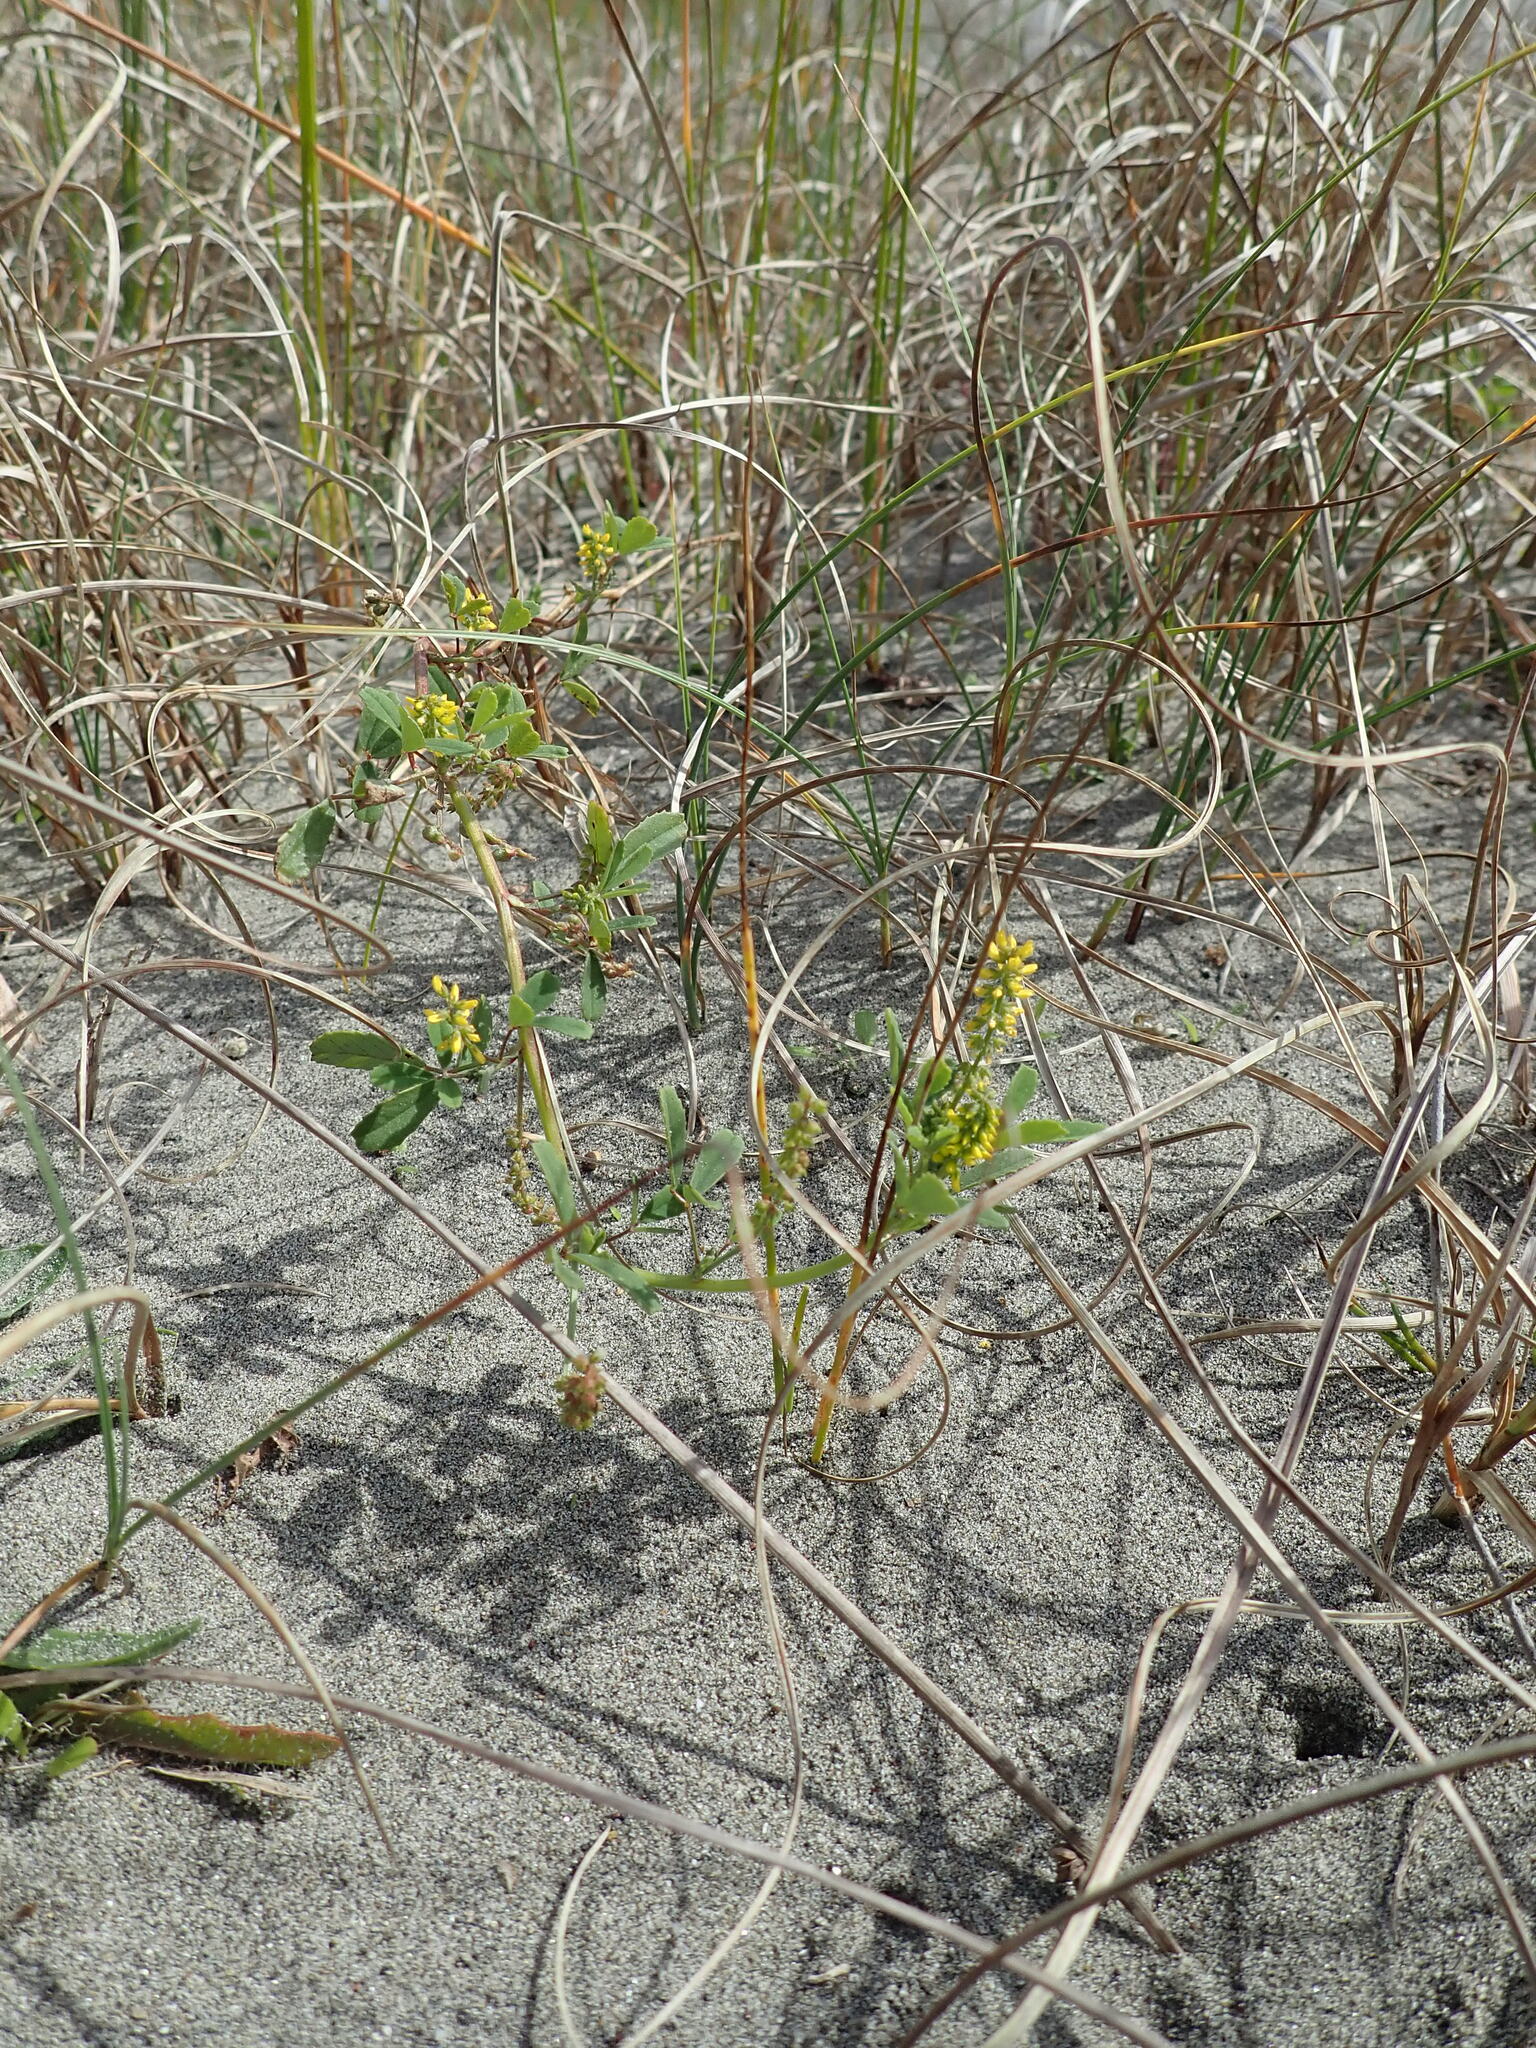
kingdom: Plantae
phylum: Tracheophyta
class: Magnoliopsida
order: Fabales
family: Fabaceae
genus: Melilotus
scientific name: Melilotus indicus
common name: Small melilot
